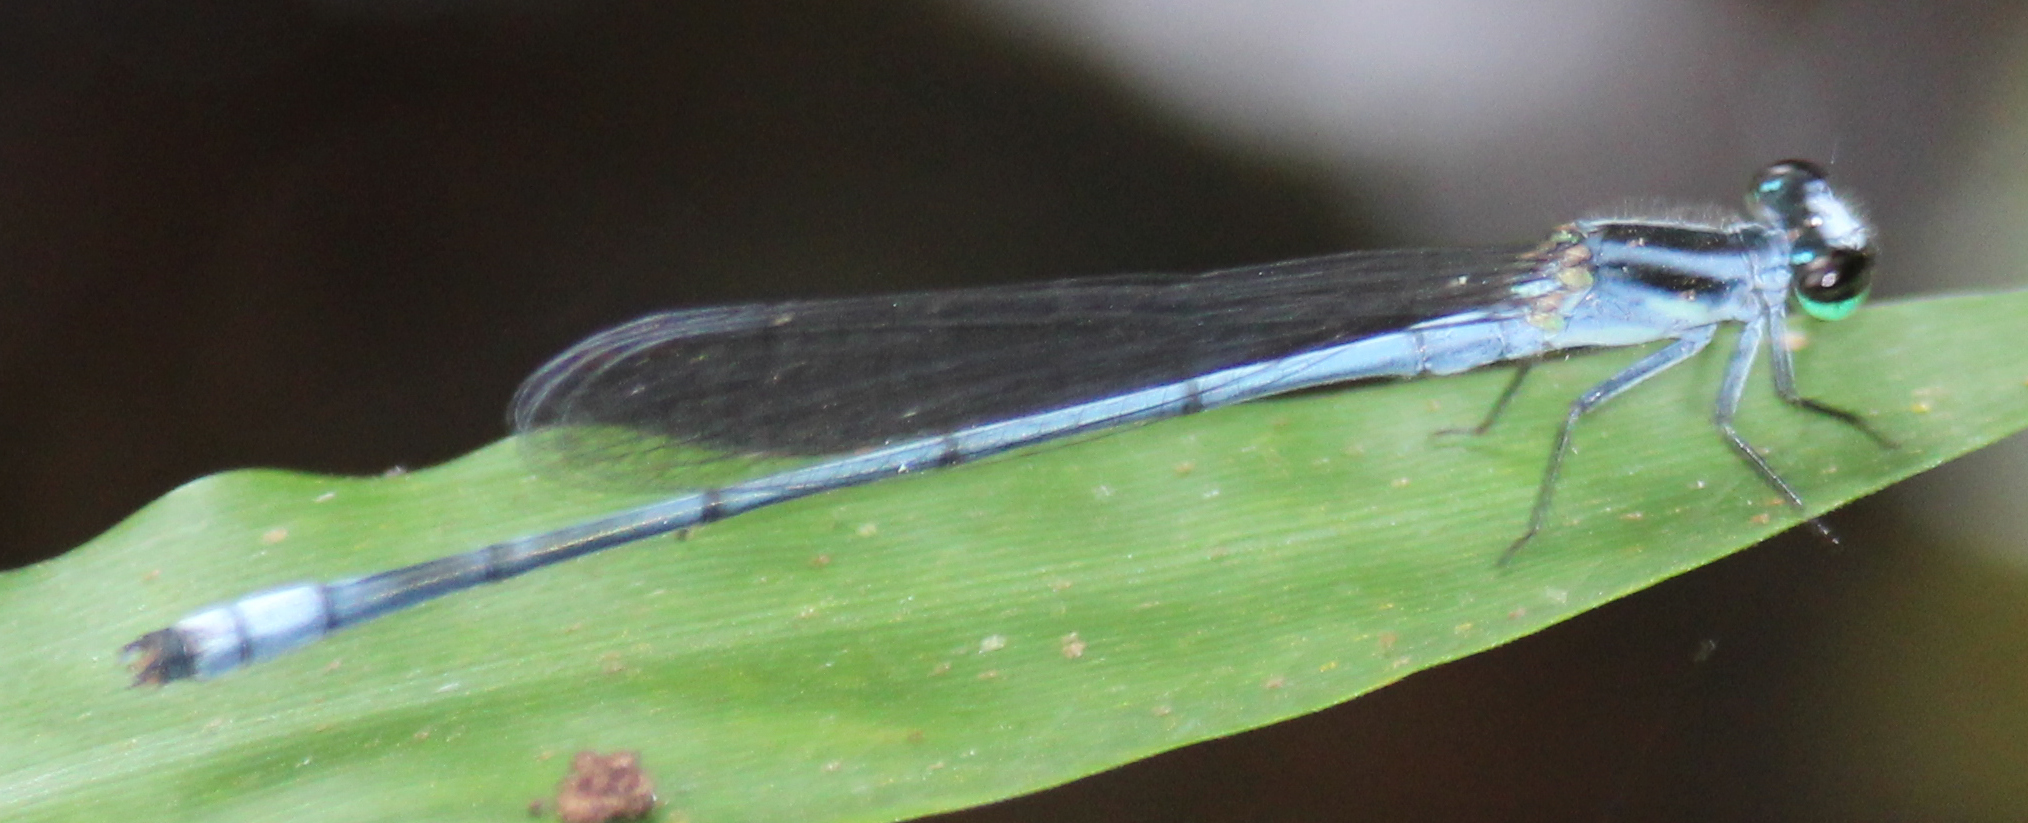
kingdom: Animalia
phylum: Arthropoda
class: Insecta
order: Odonata
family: Coenagrionidae
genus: Pseudagrion
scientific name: Pseudagrion kersteni
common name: Powder-faced sprite
